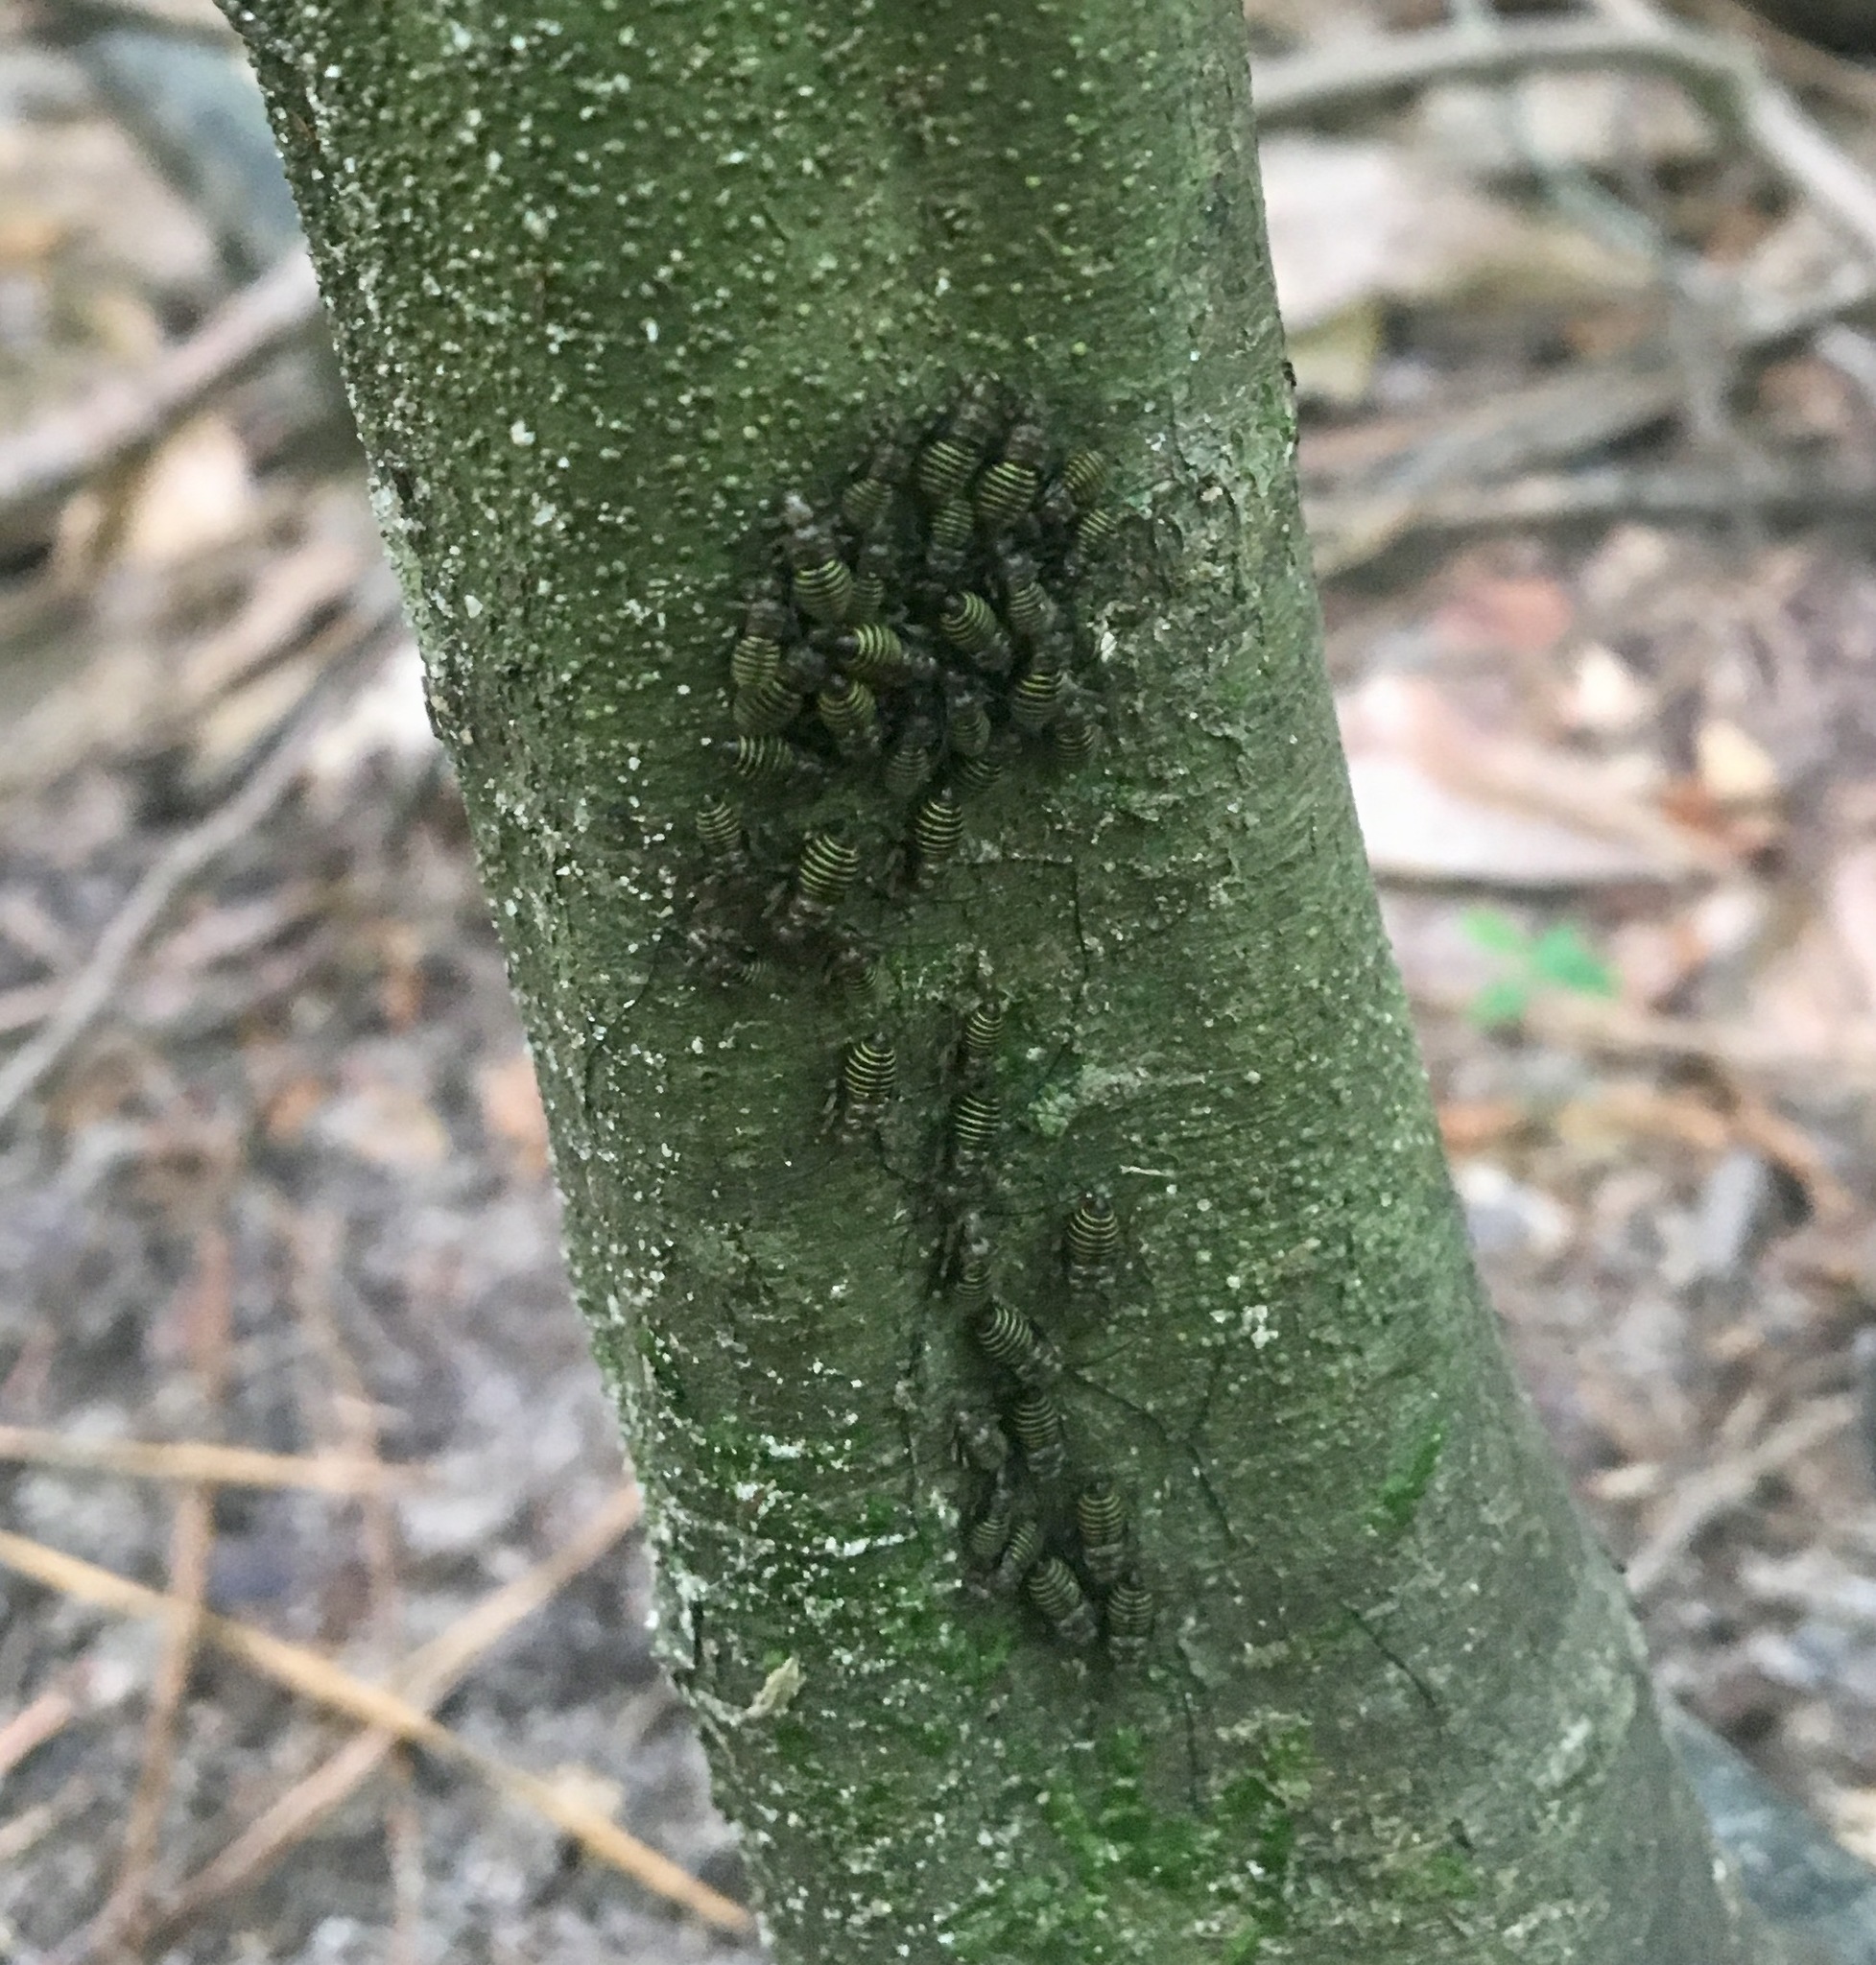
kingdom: Animalia
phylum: Arthropoda
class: Insecta
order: Psocodea
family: Psocidae
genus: Cerastipsocus
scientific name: Cerastipsocus venosus
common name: Tree cattle
